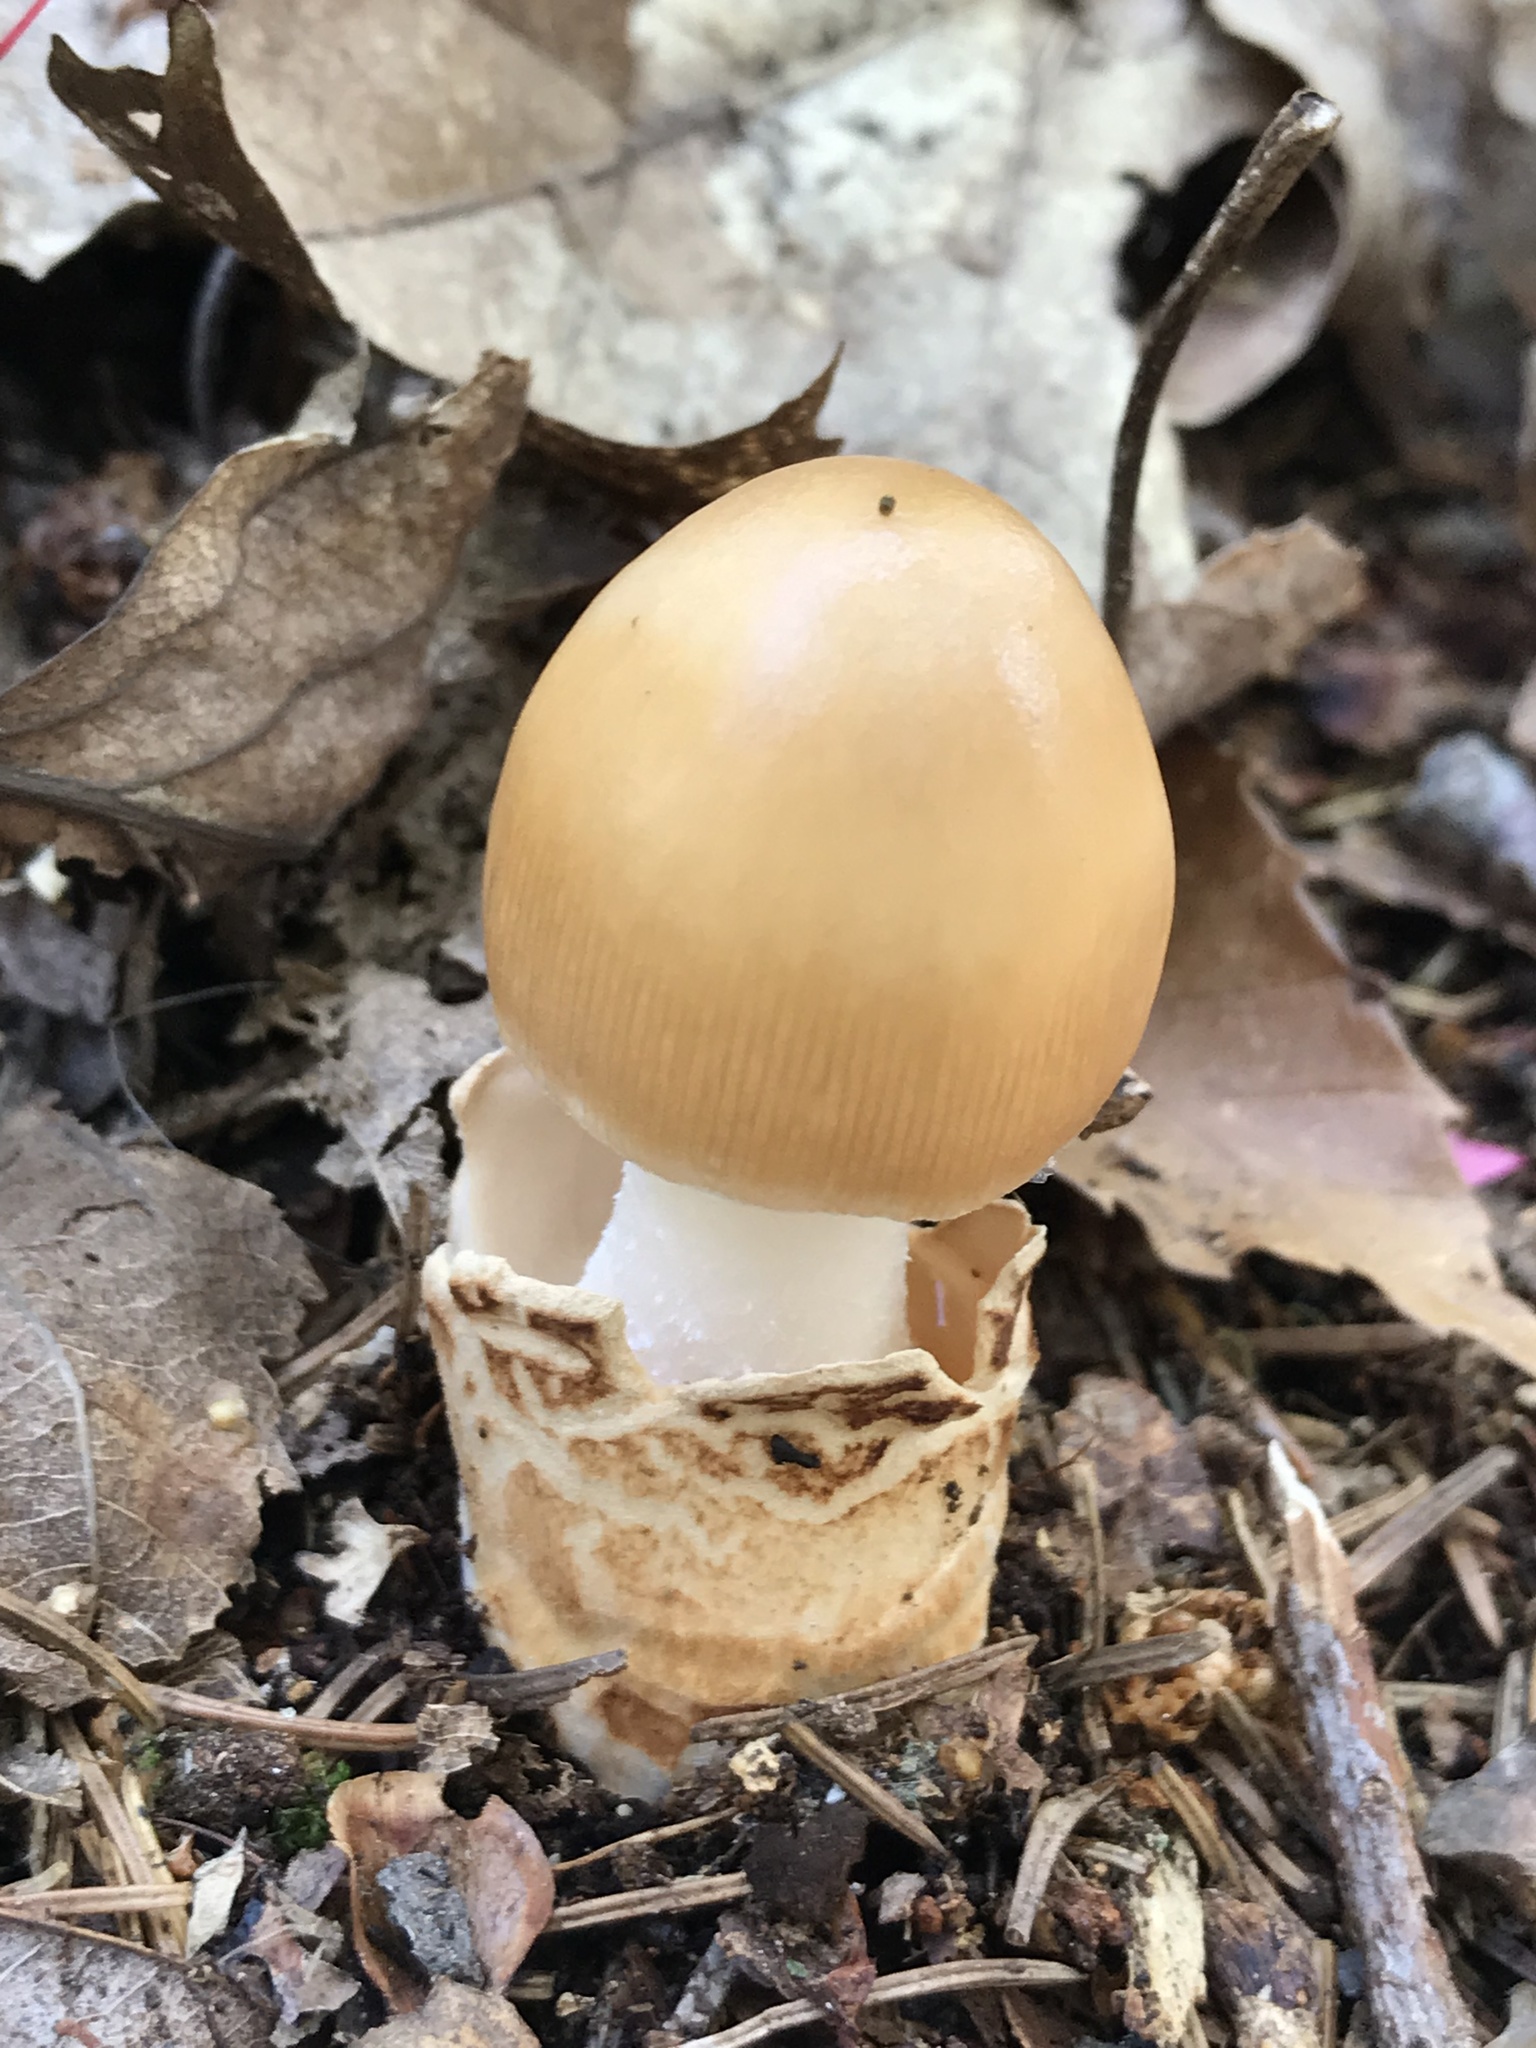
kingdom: Fungi
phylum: Basidiomycota
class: Agaricomycetes
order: Agaricales
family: Amanitaceae
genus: Amanita
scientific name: Amanita fulva
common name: Tawny grisette
